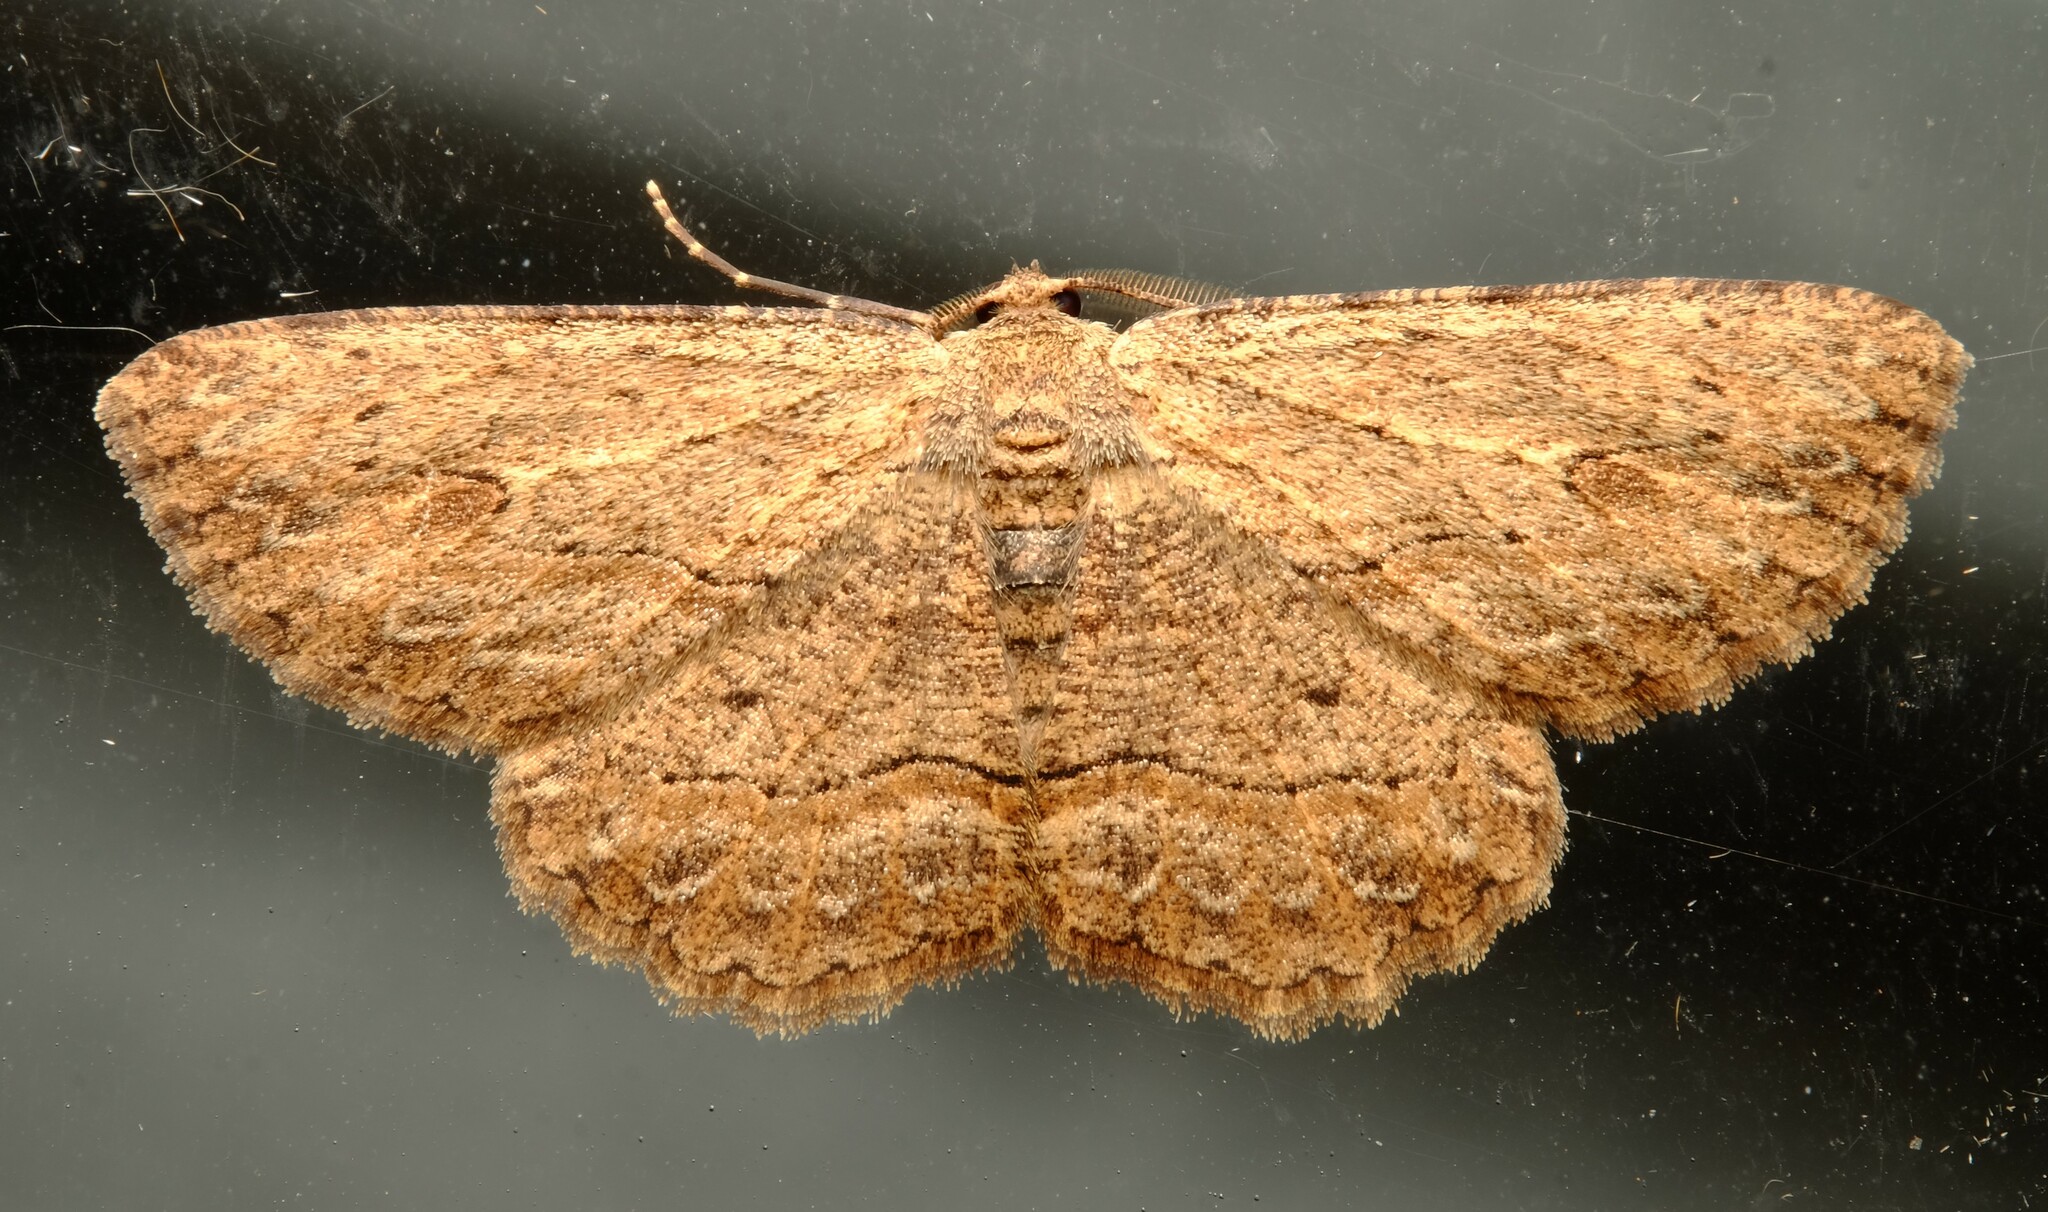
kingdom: Animalia
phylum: Arthropoda
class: Insecta
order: Lepidoptera
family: Geometridae
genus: Ectropis
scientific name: Ectropis excursaria
